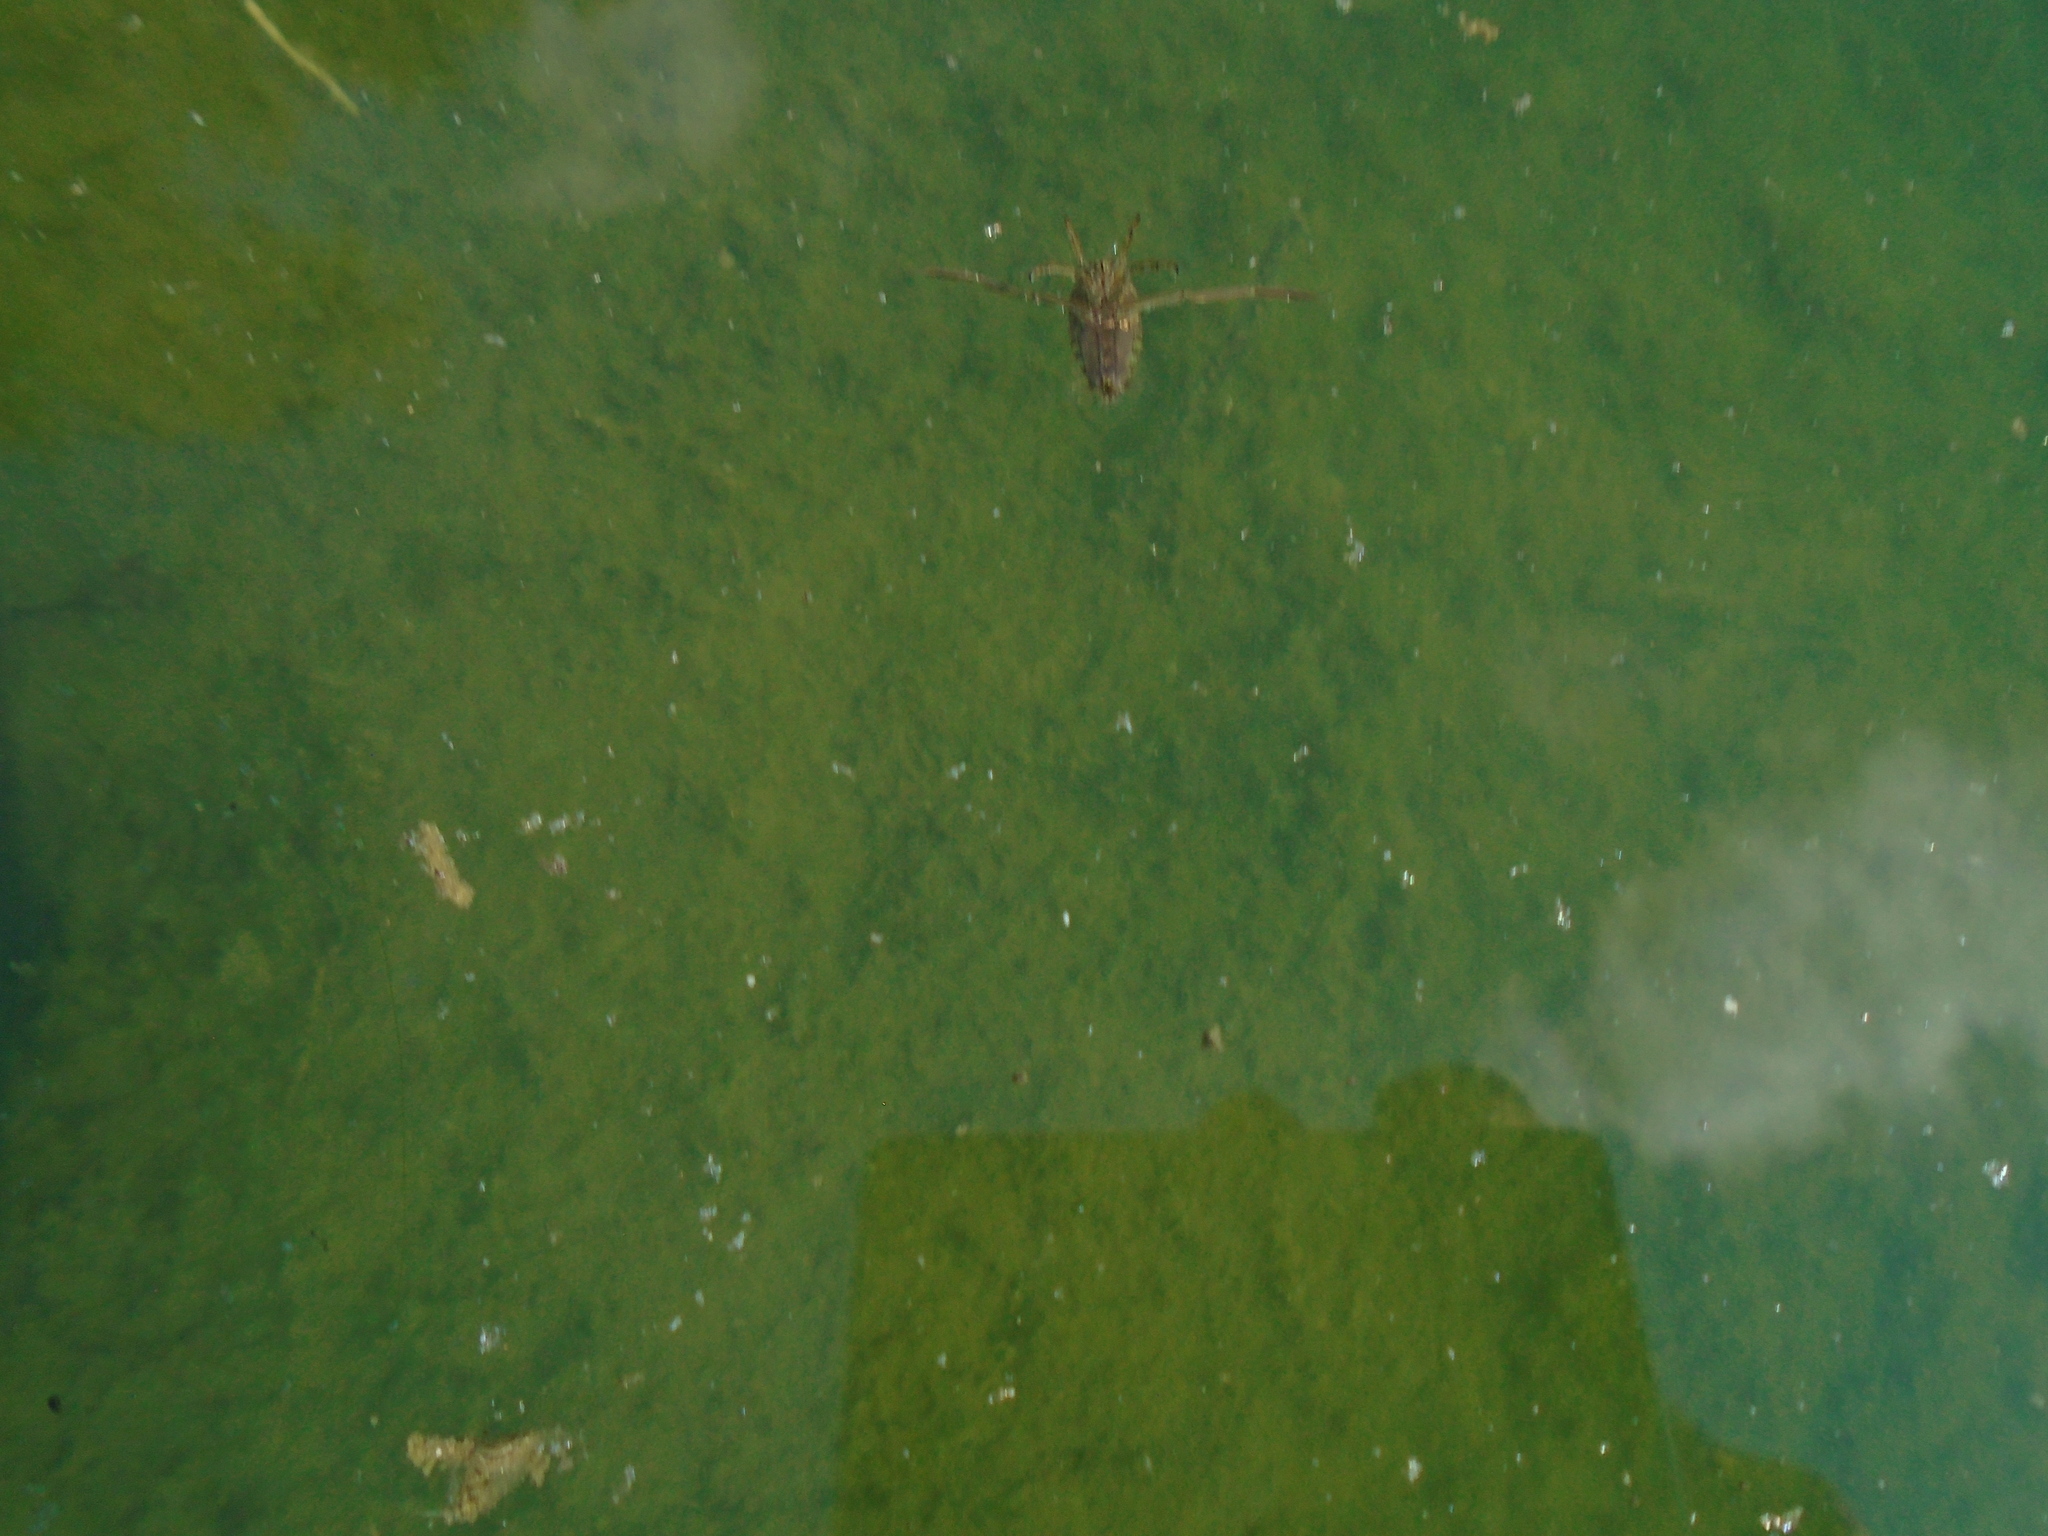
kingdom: Animalia
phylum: Arthropoda
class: Insecta
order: Hemiptera
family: Notonectidae
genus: Notonecta
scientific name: Notonecta
